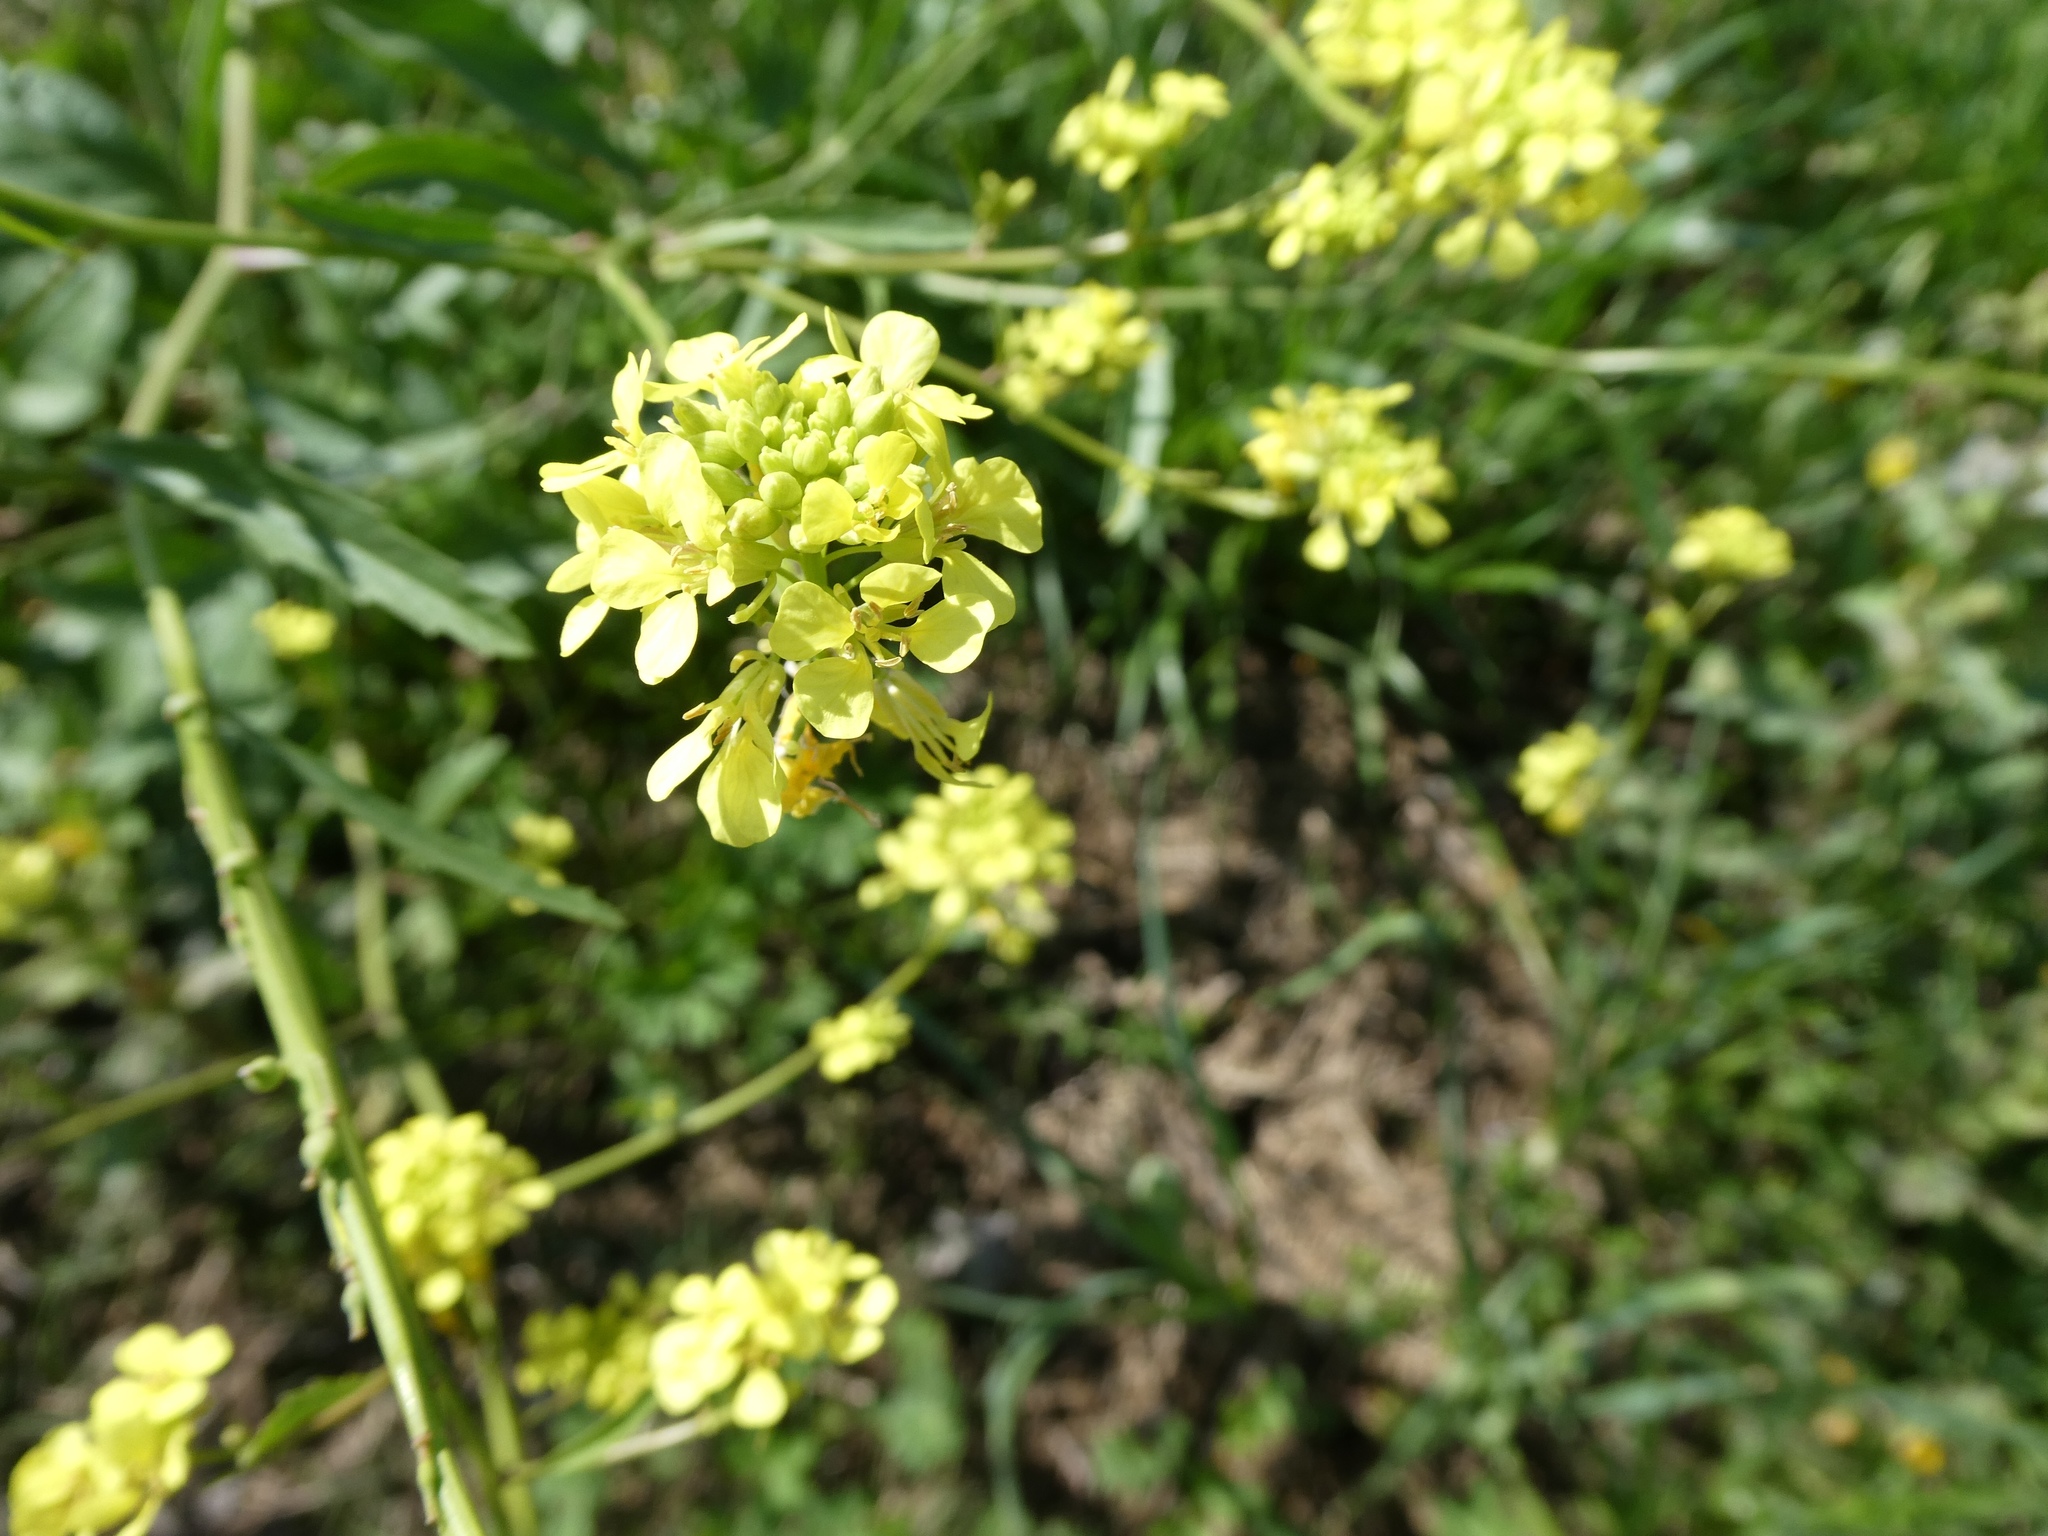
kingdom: Plantae
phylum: Tracheophyta
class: Magnoliopsida
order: Brassicales
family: Brassicaceae
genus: Rapistrum
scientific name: Rapistrum rugosum
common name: Annual bastardcabbage
